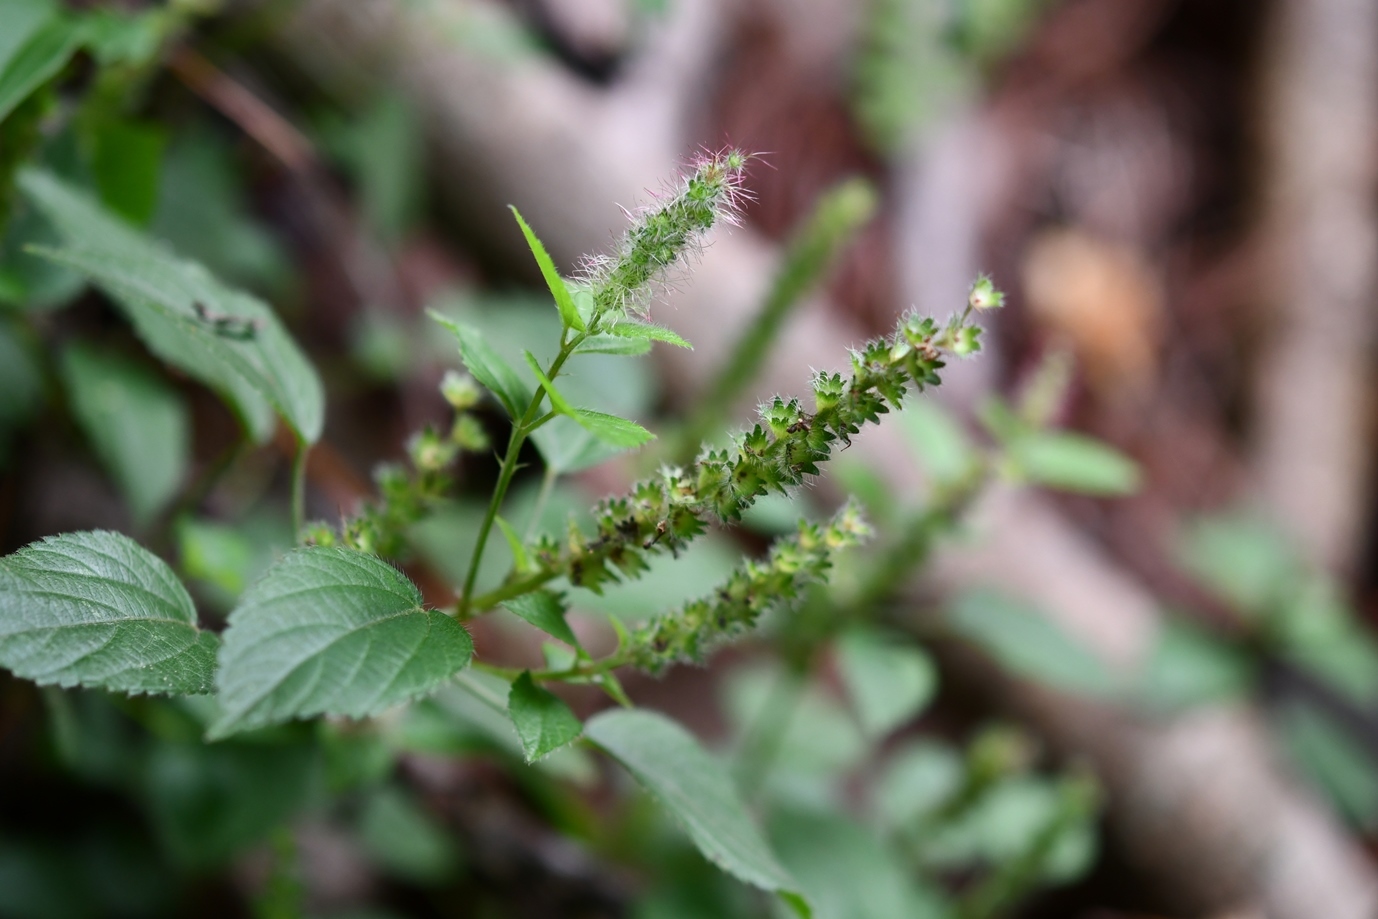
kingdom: Plantae
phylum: Tracheophyta
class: Magnoliopsida
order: Malpighiales
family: Euphorbiaceae
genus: Acalypha
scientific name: Acalypha phleoides
